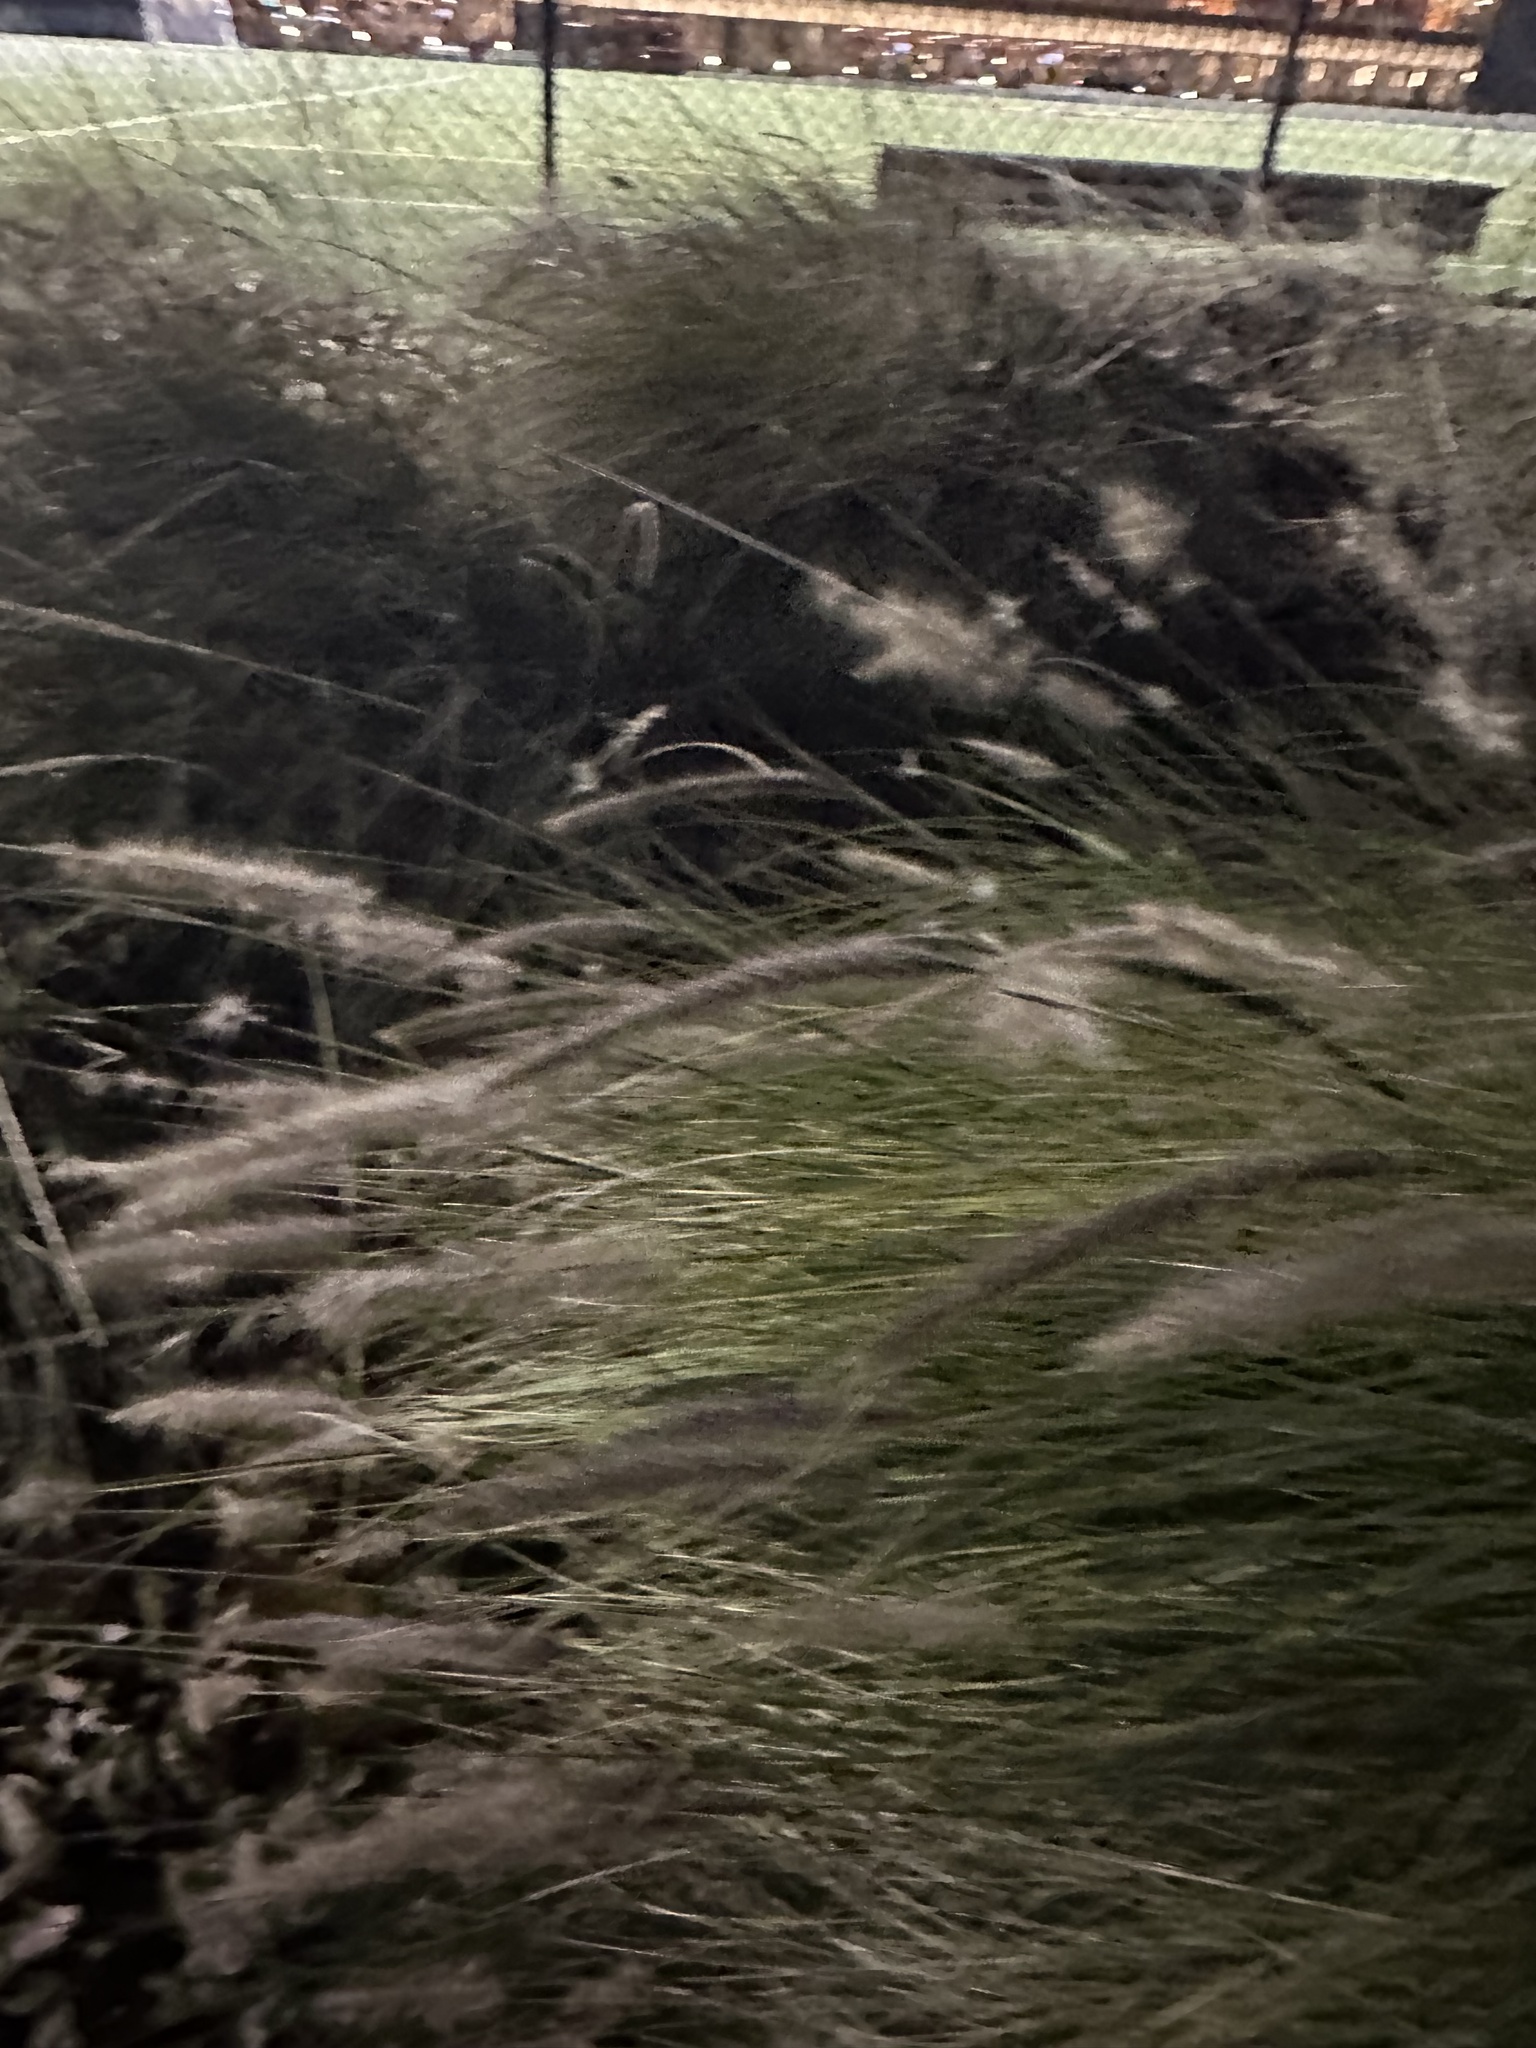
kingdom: Plantae
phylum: Tracheophyta
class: Liliopsida
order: Poales
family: Poaceae
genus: Cenchrus
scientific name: Cenchrus setaceus
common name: Crimson fountaingrass
